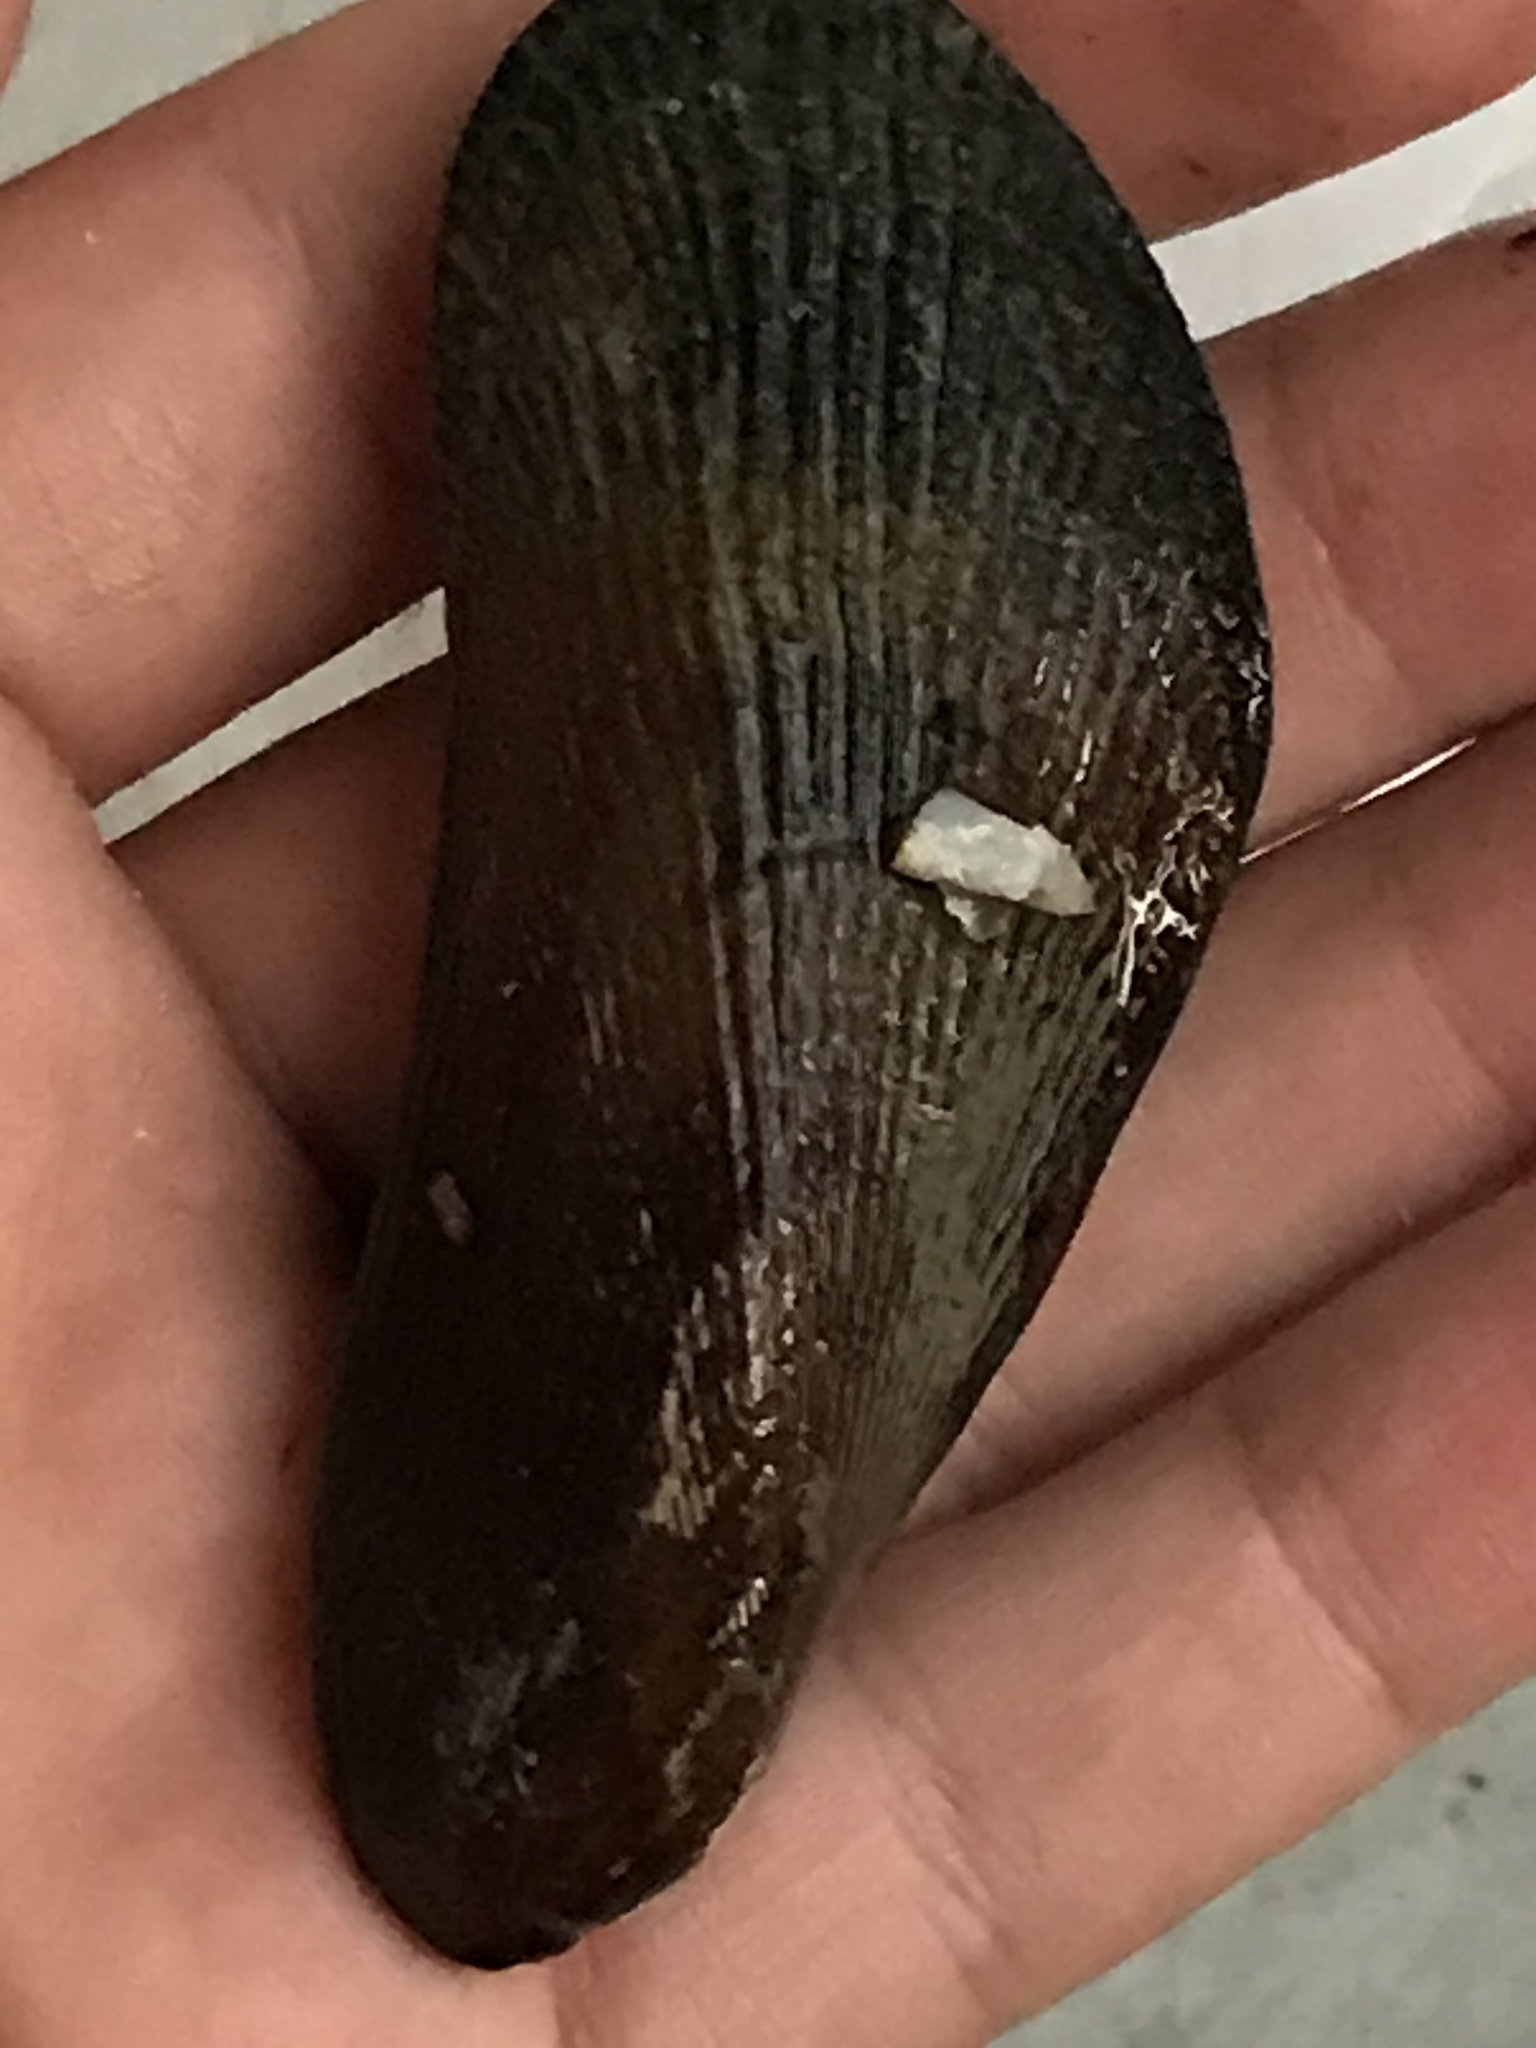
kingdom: Animalia
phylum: Mollusca
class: Bivalvia
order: Mytilida
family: Mytilidae
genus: Geukensia
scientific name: Geukensia demissa
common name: Ribbed mussel
